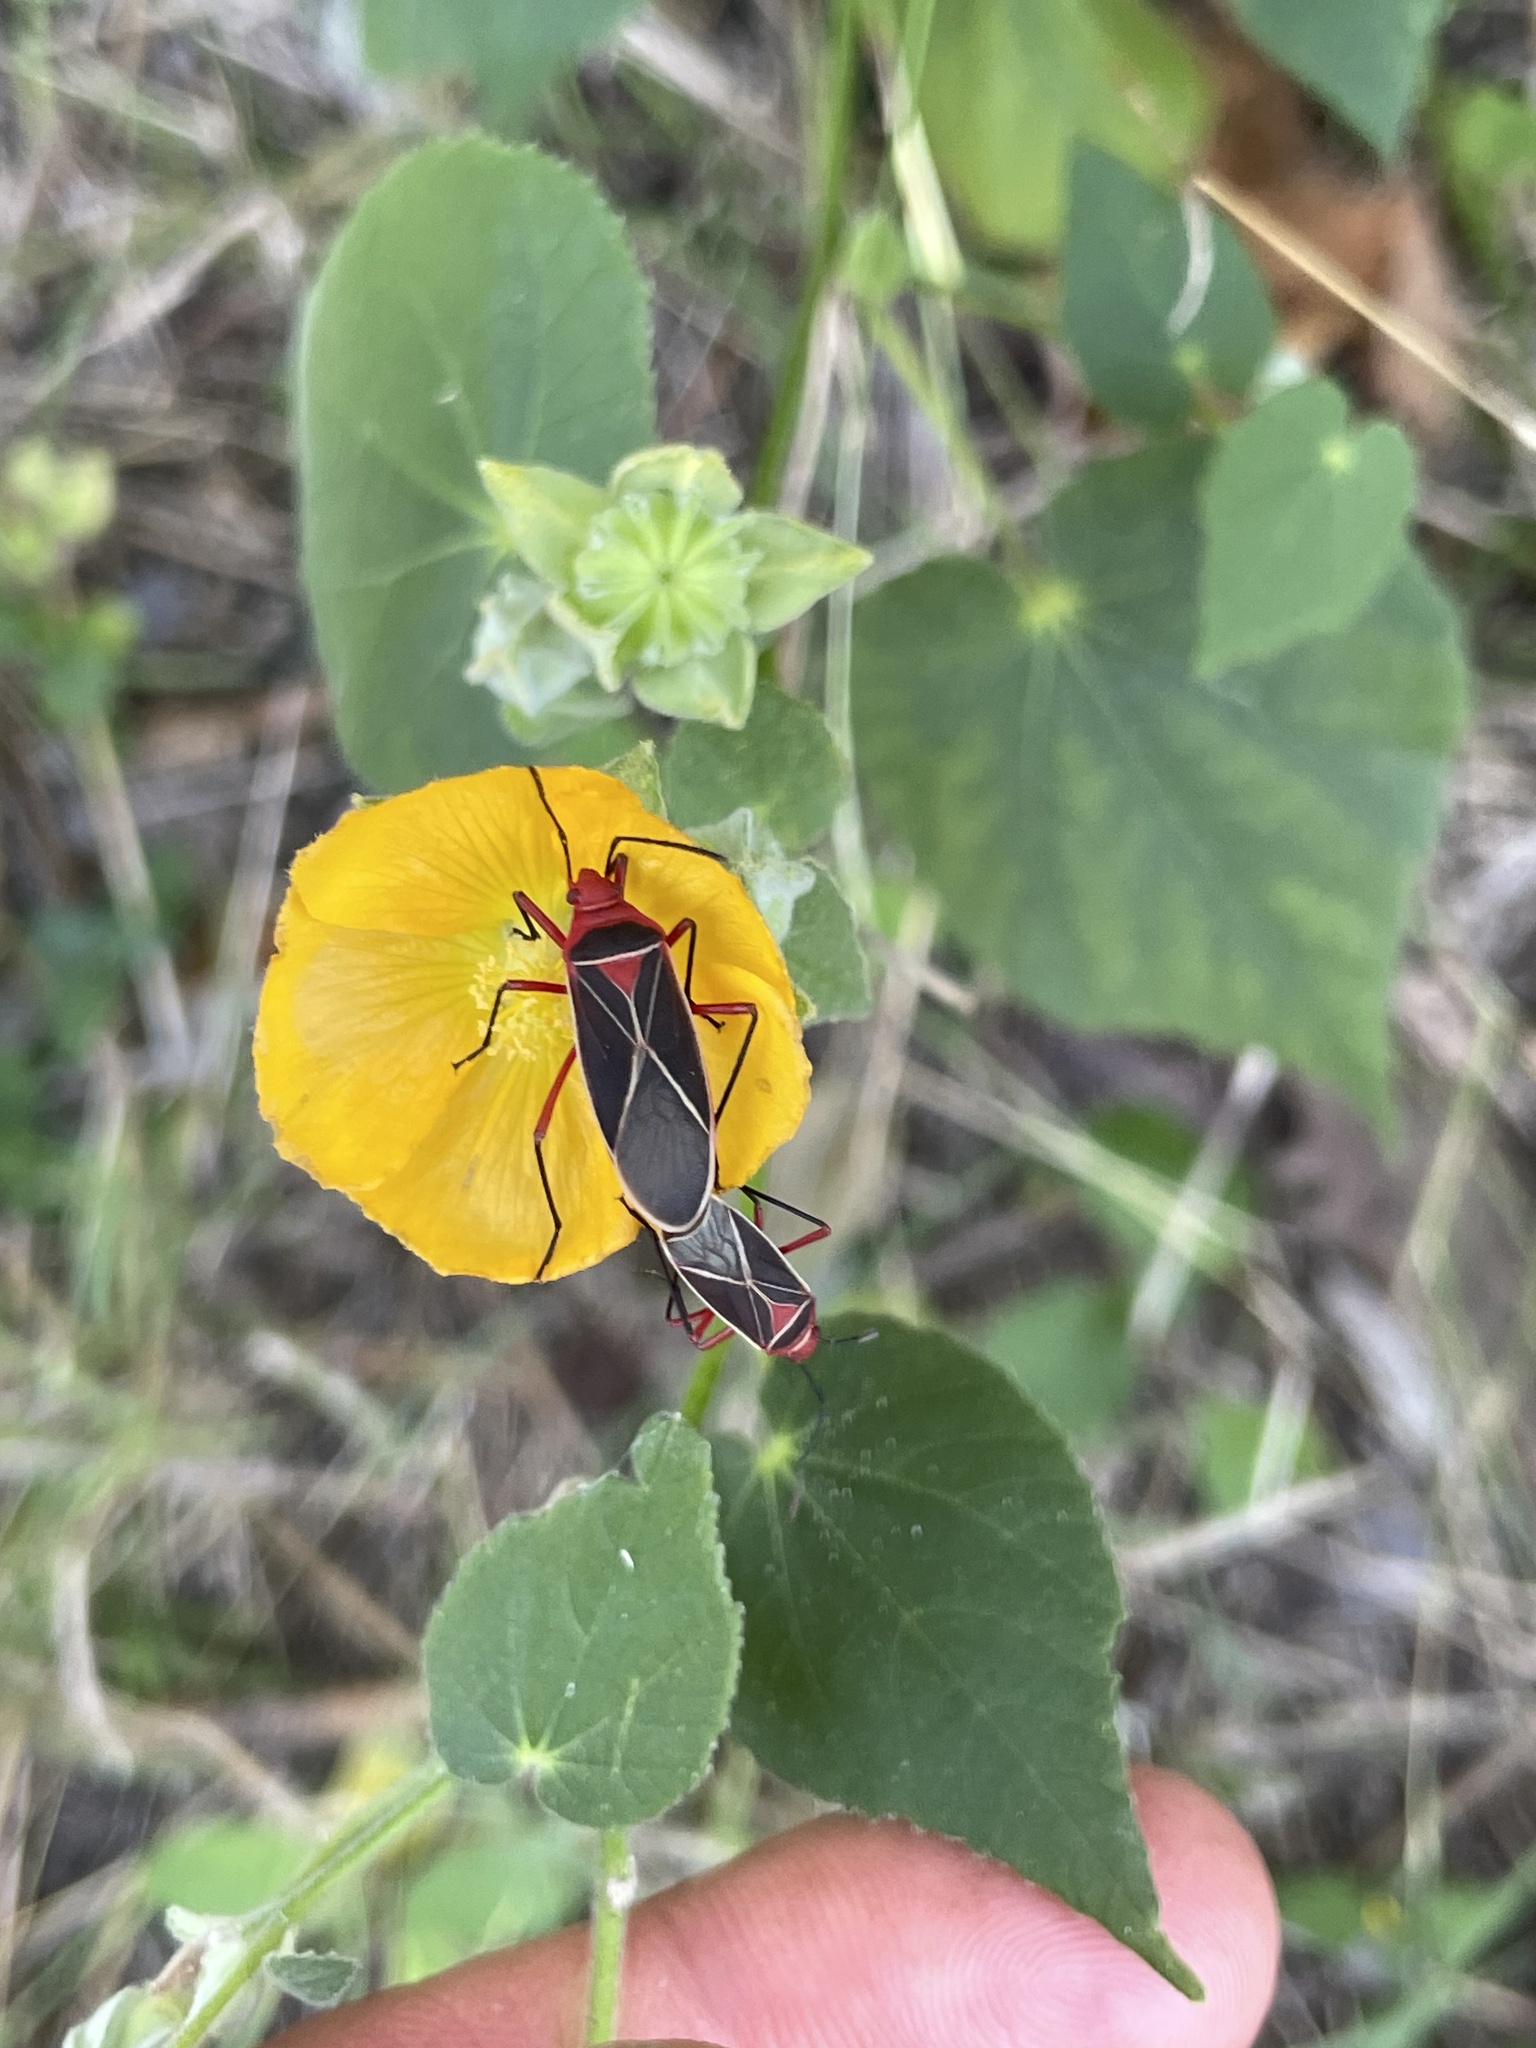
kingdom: Animalia
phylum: Arthropoda
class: Insecta
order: Hemiptera
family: Pyrrhocoridae
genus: Dysdercus
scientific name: Dysdercus suturellus
